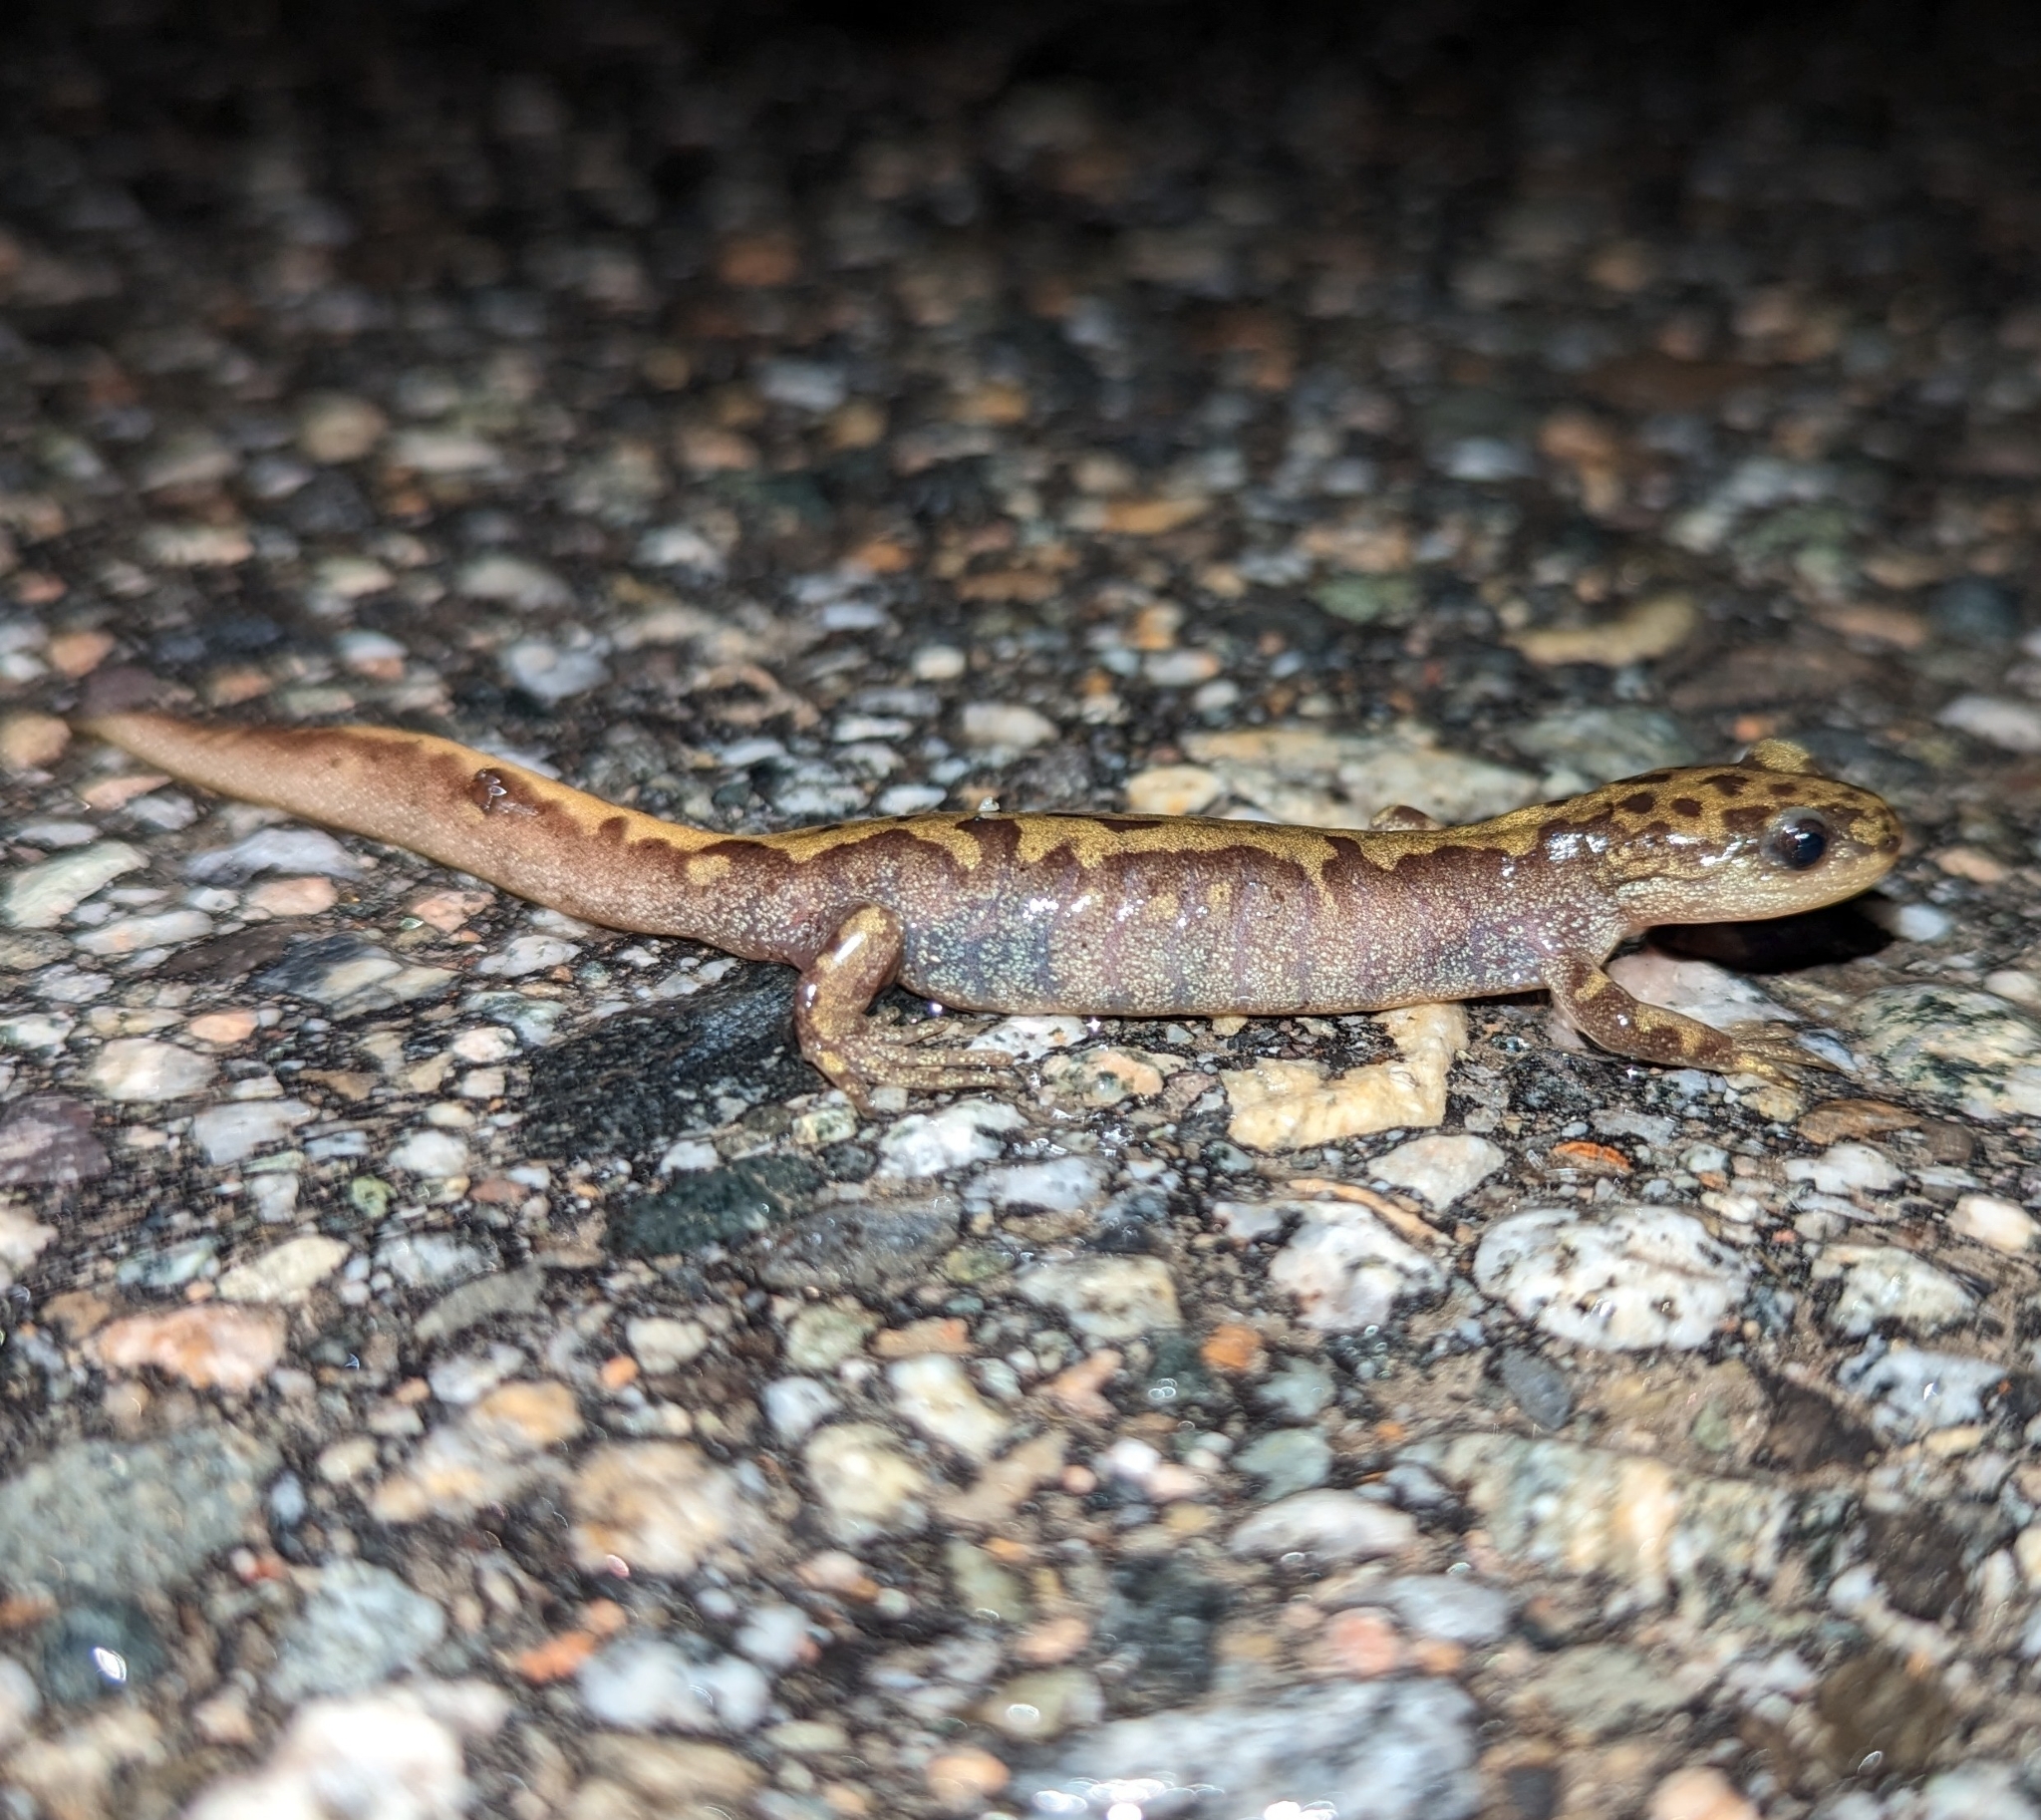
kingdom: Animalia
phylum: Chordata
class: Amphibia
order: Caudata
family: Ambystomatidae
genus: Ambystoma
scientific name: Ambystoma macrodactylum
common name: Long-toed salamander
